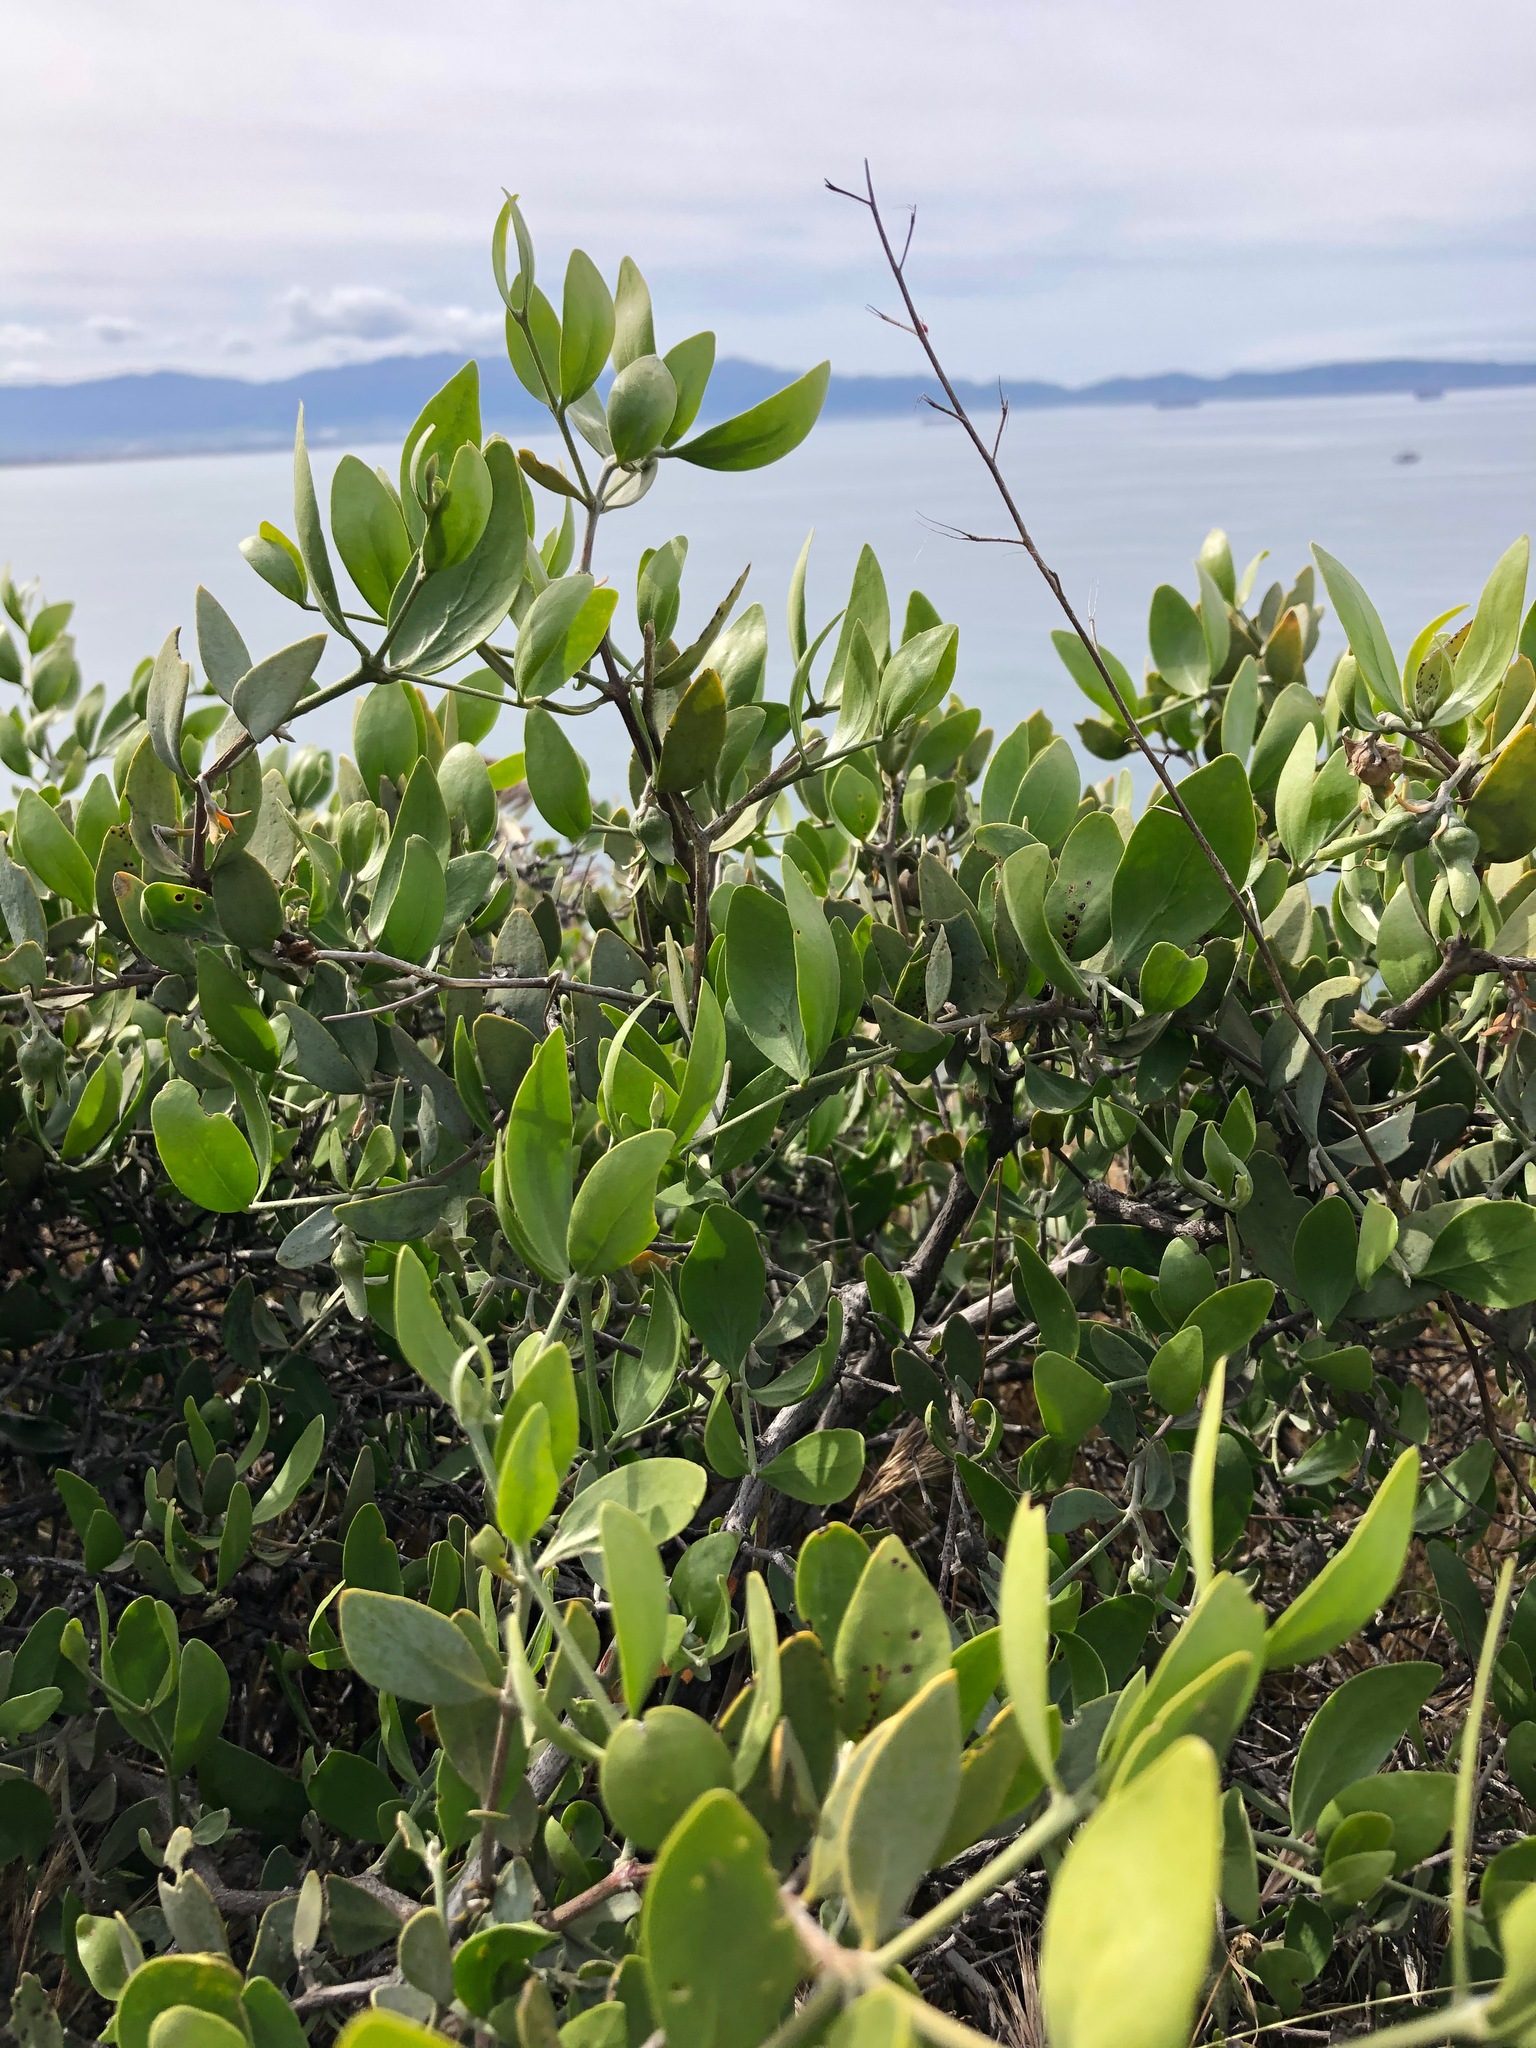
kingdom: Plantae
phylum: Tracheophyta
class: Magnoliopsida
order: Caryophyllales
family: Simmondsiaceae
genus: Simmondsia
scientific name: Simmondsia chinensis
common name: Jojoba
